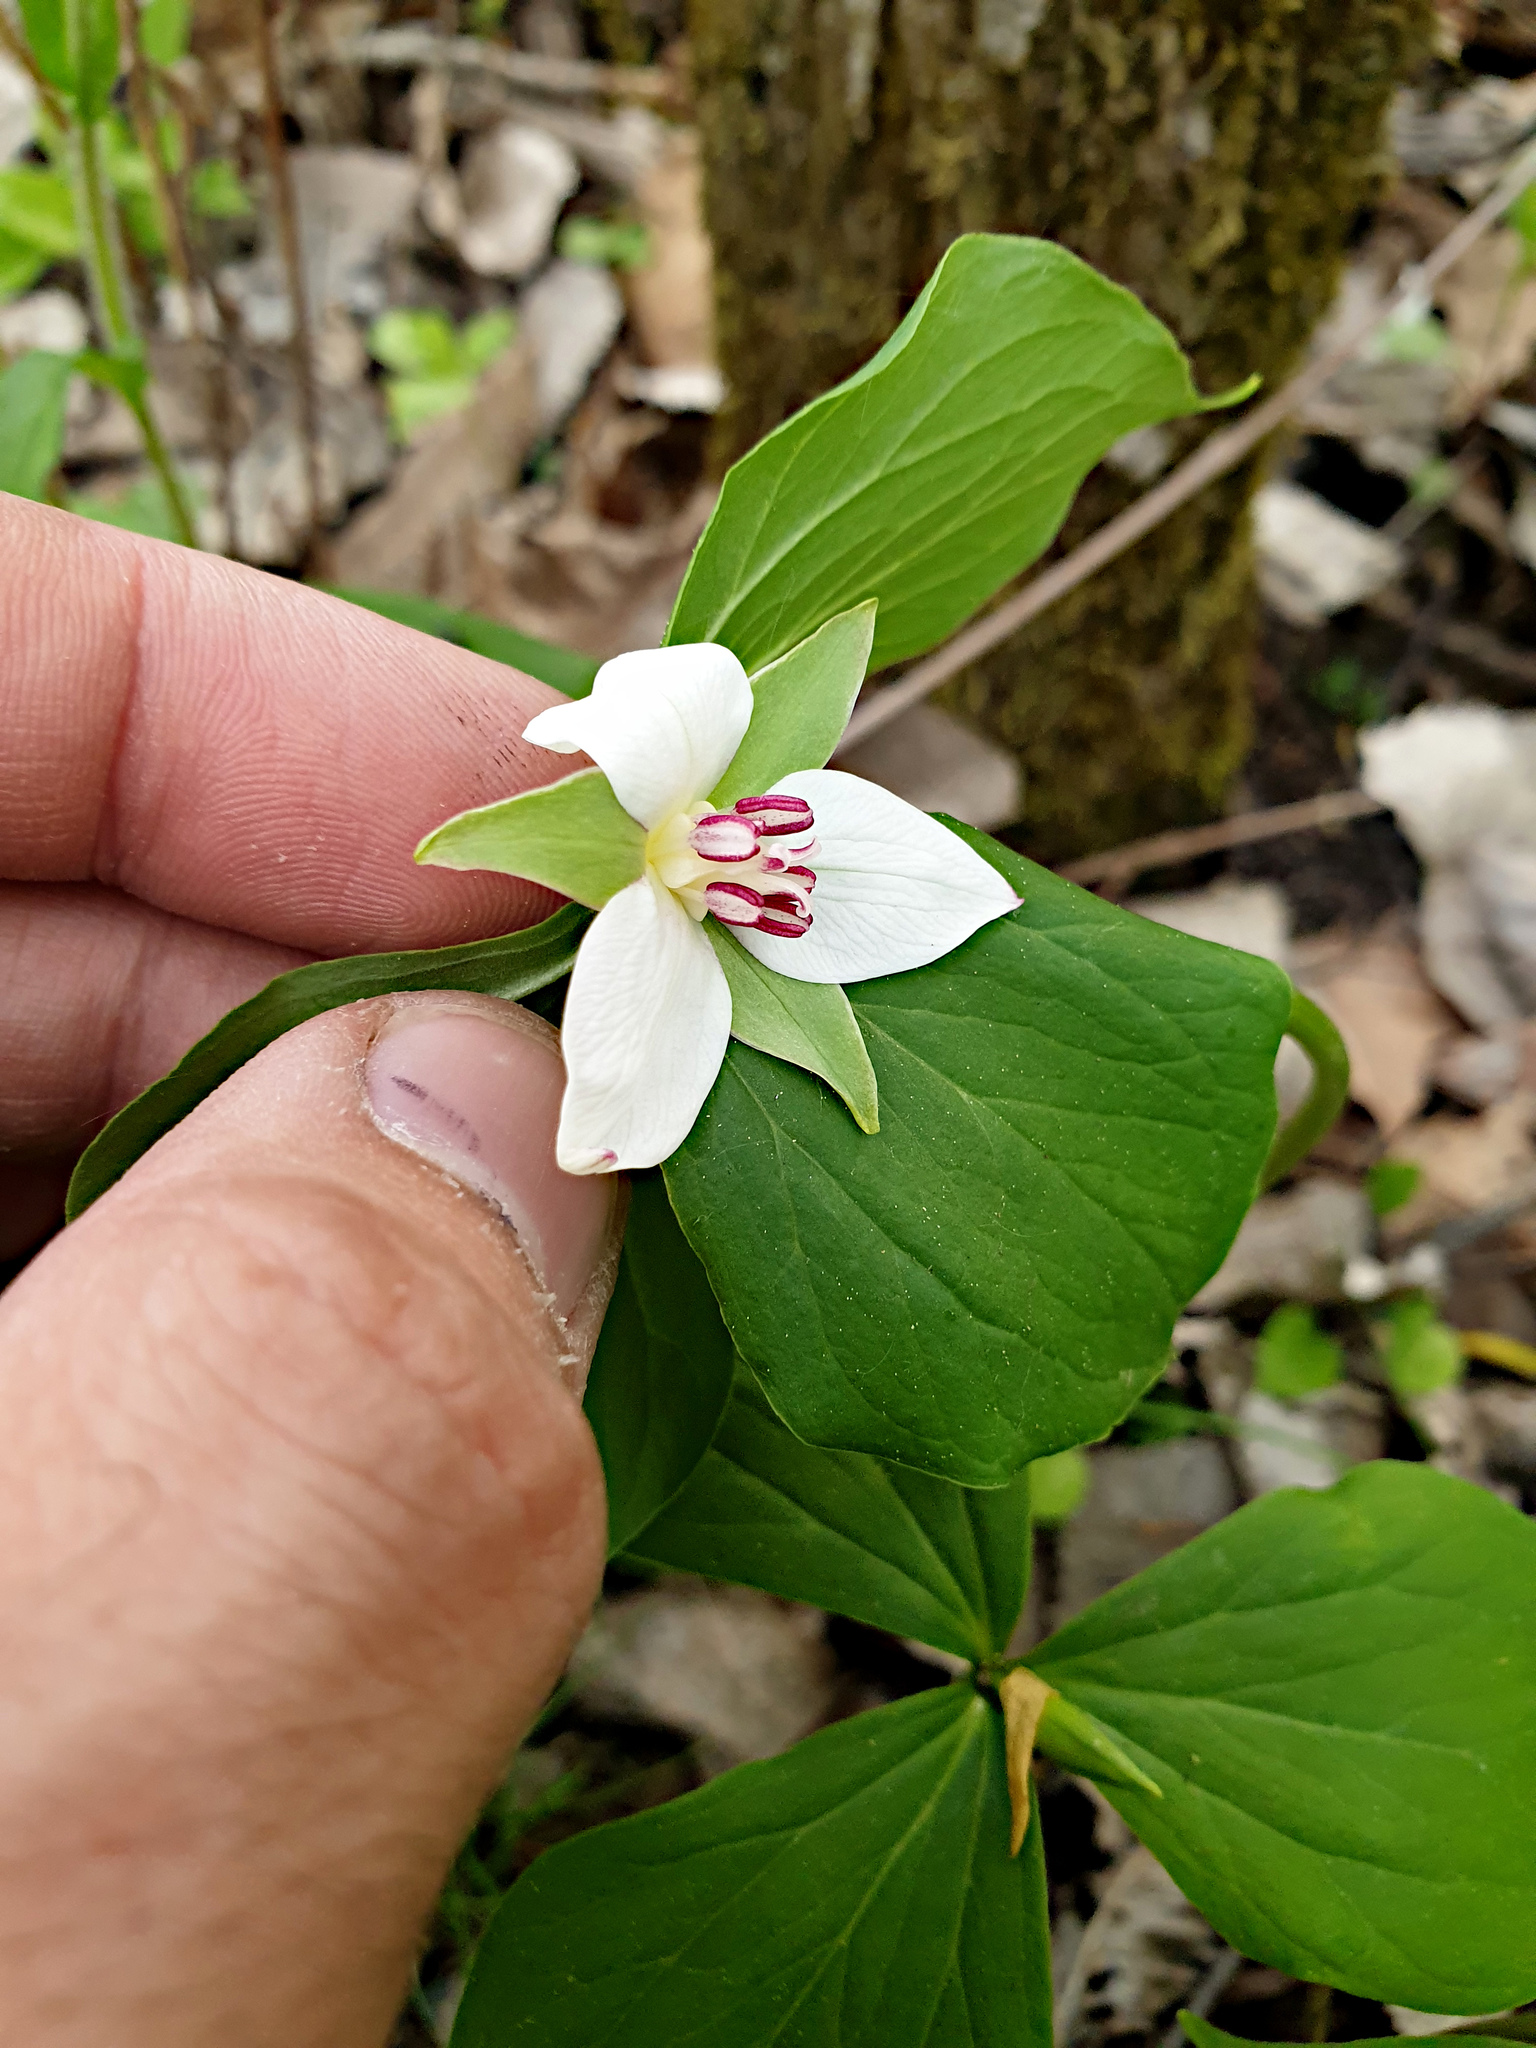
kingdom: Plantae
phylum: Tracheophyta
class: Liliopsida
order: Liliales
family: Melanthiaceae
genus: Trillium
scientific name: Trillium cernuum
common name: Nodding trillium
